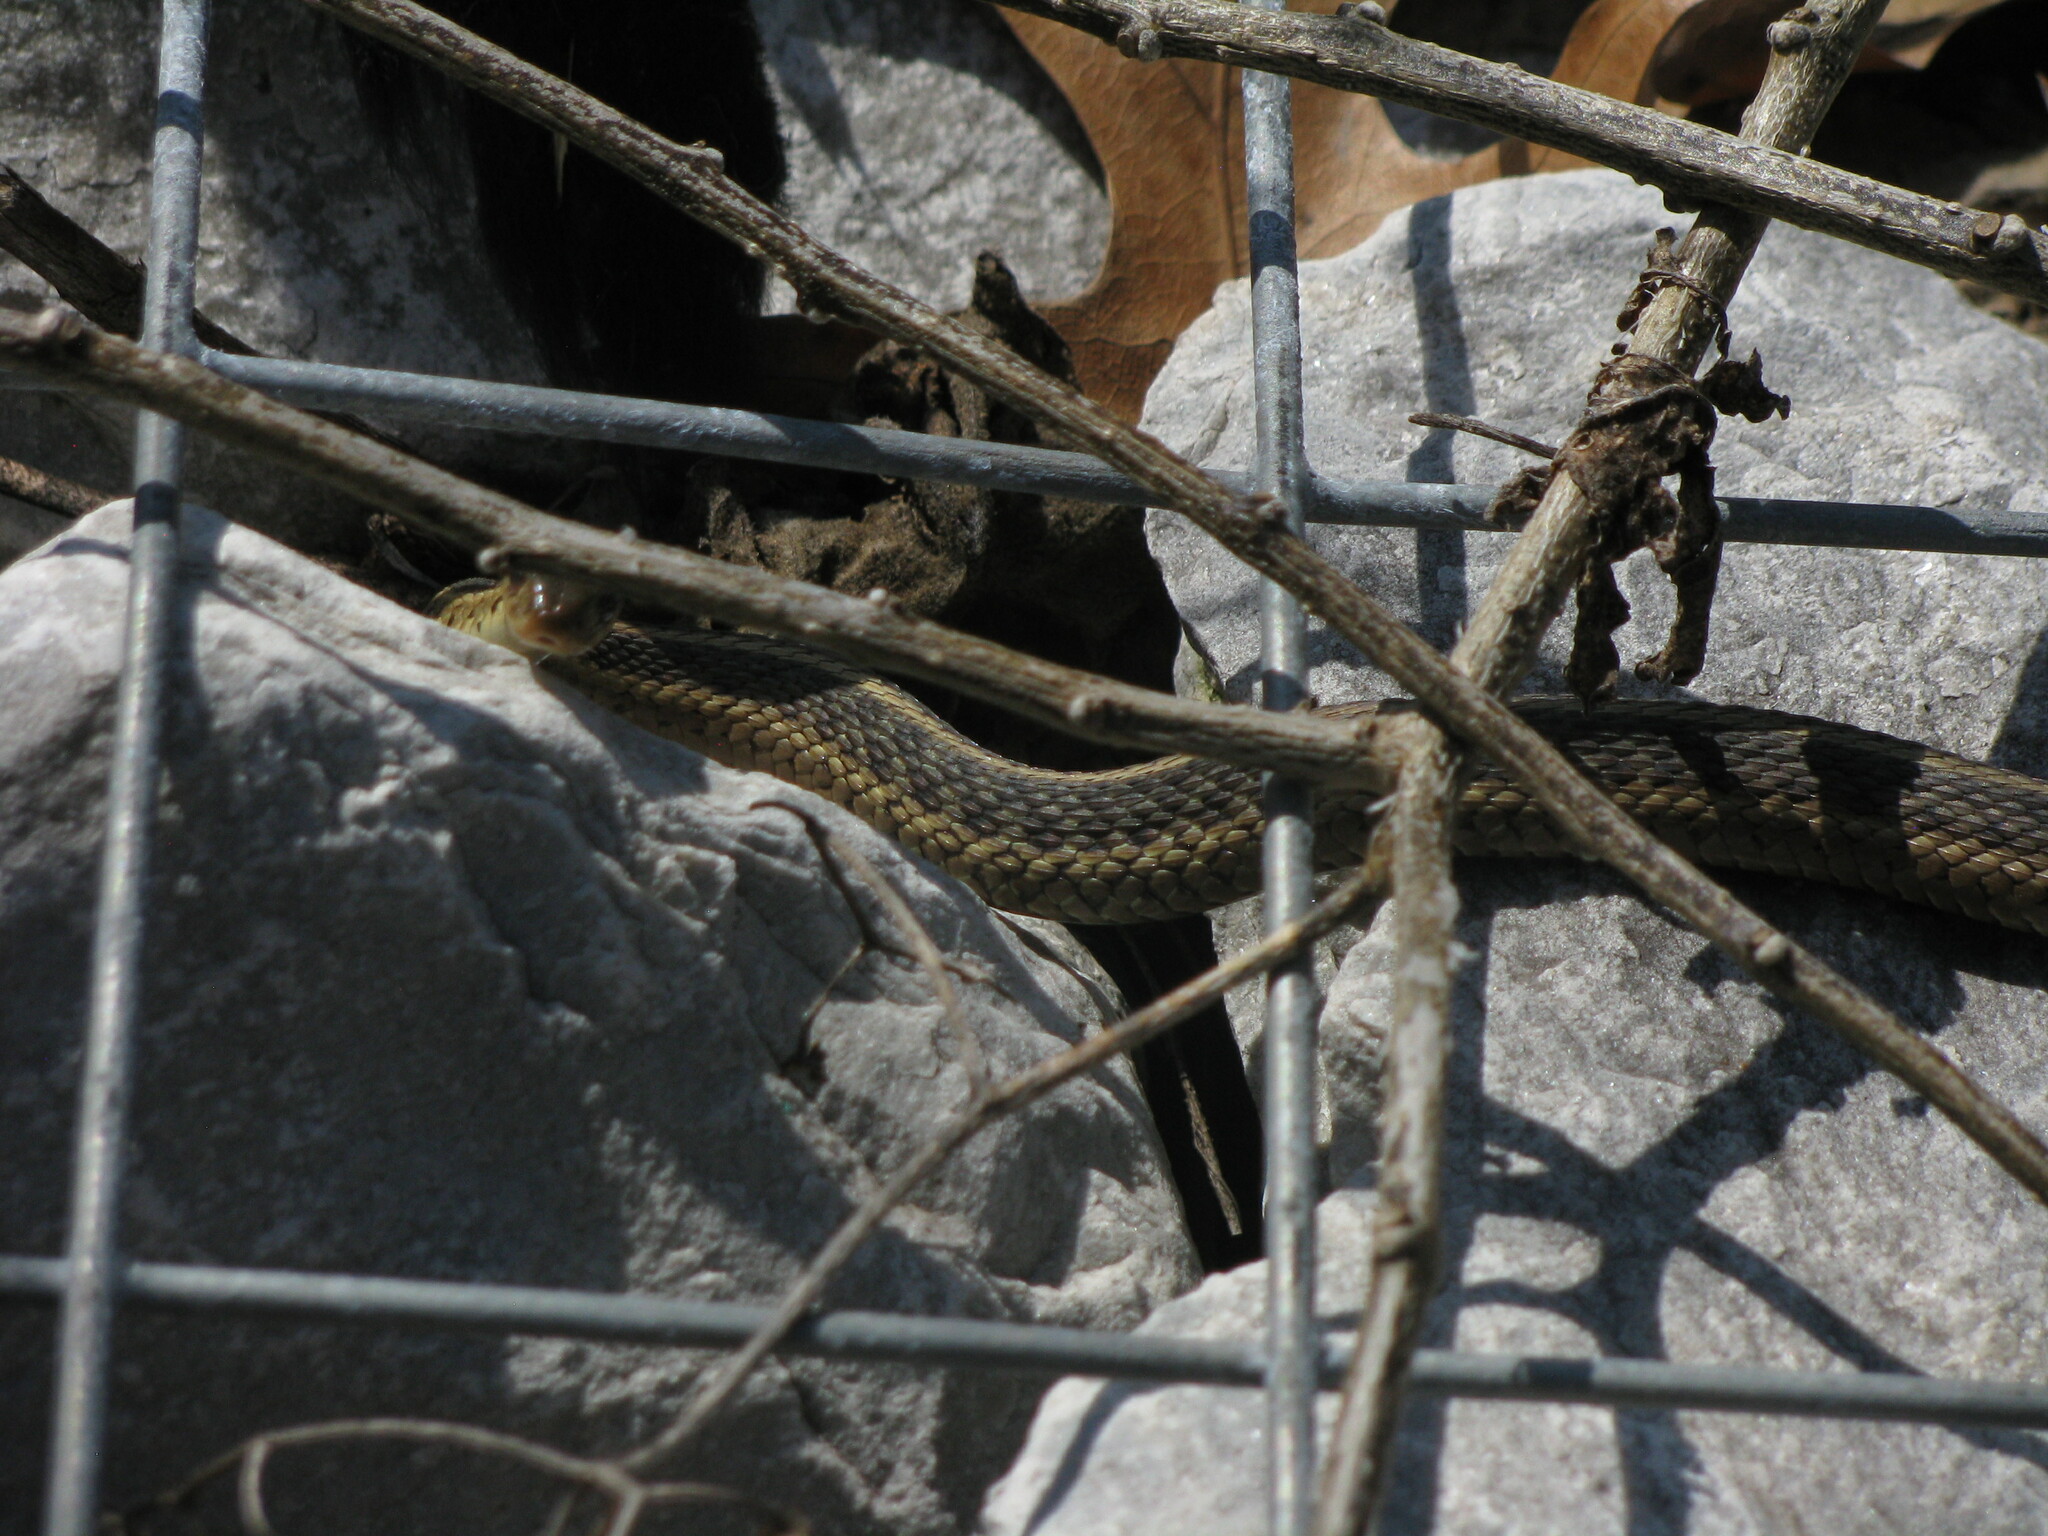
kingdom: Animalia
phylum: Chordata
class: Squamata
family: Colubridae
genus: Thamnophis
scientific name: Thamnophis sirtalis
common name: Common garter snake
